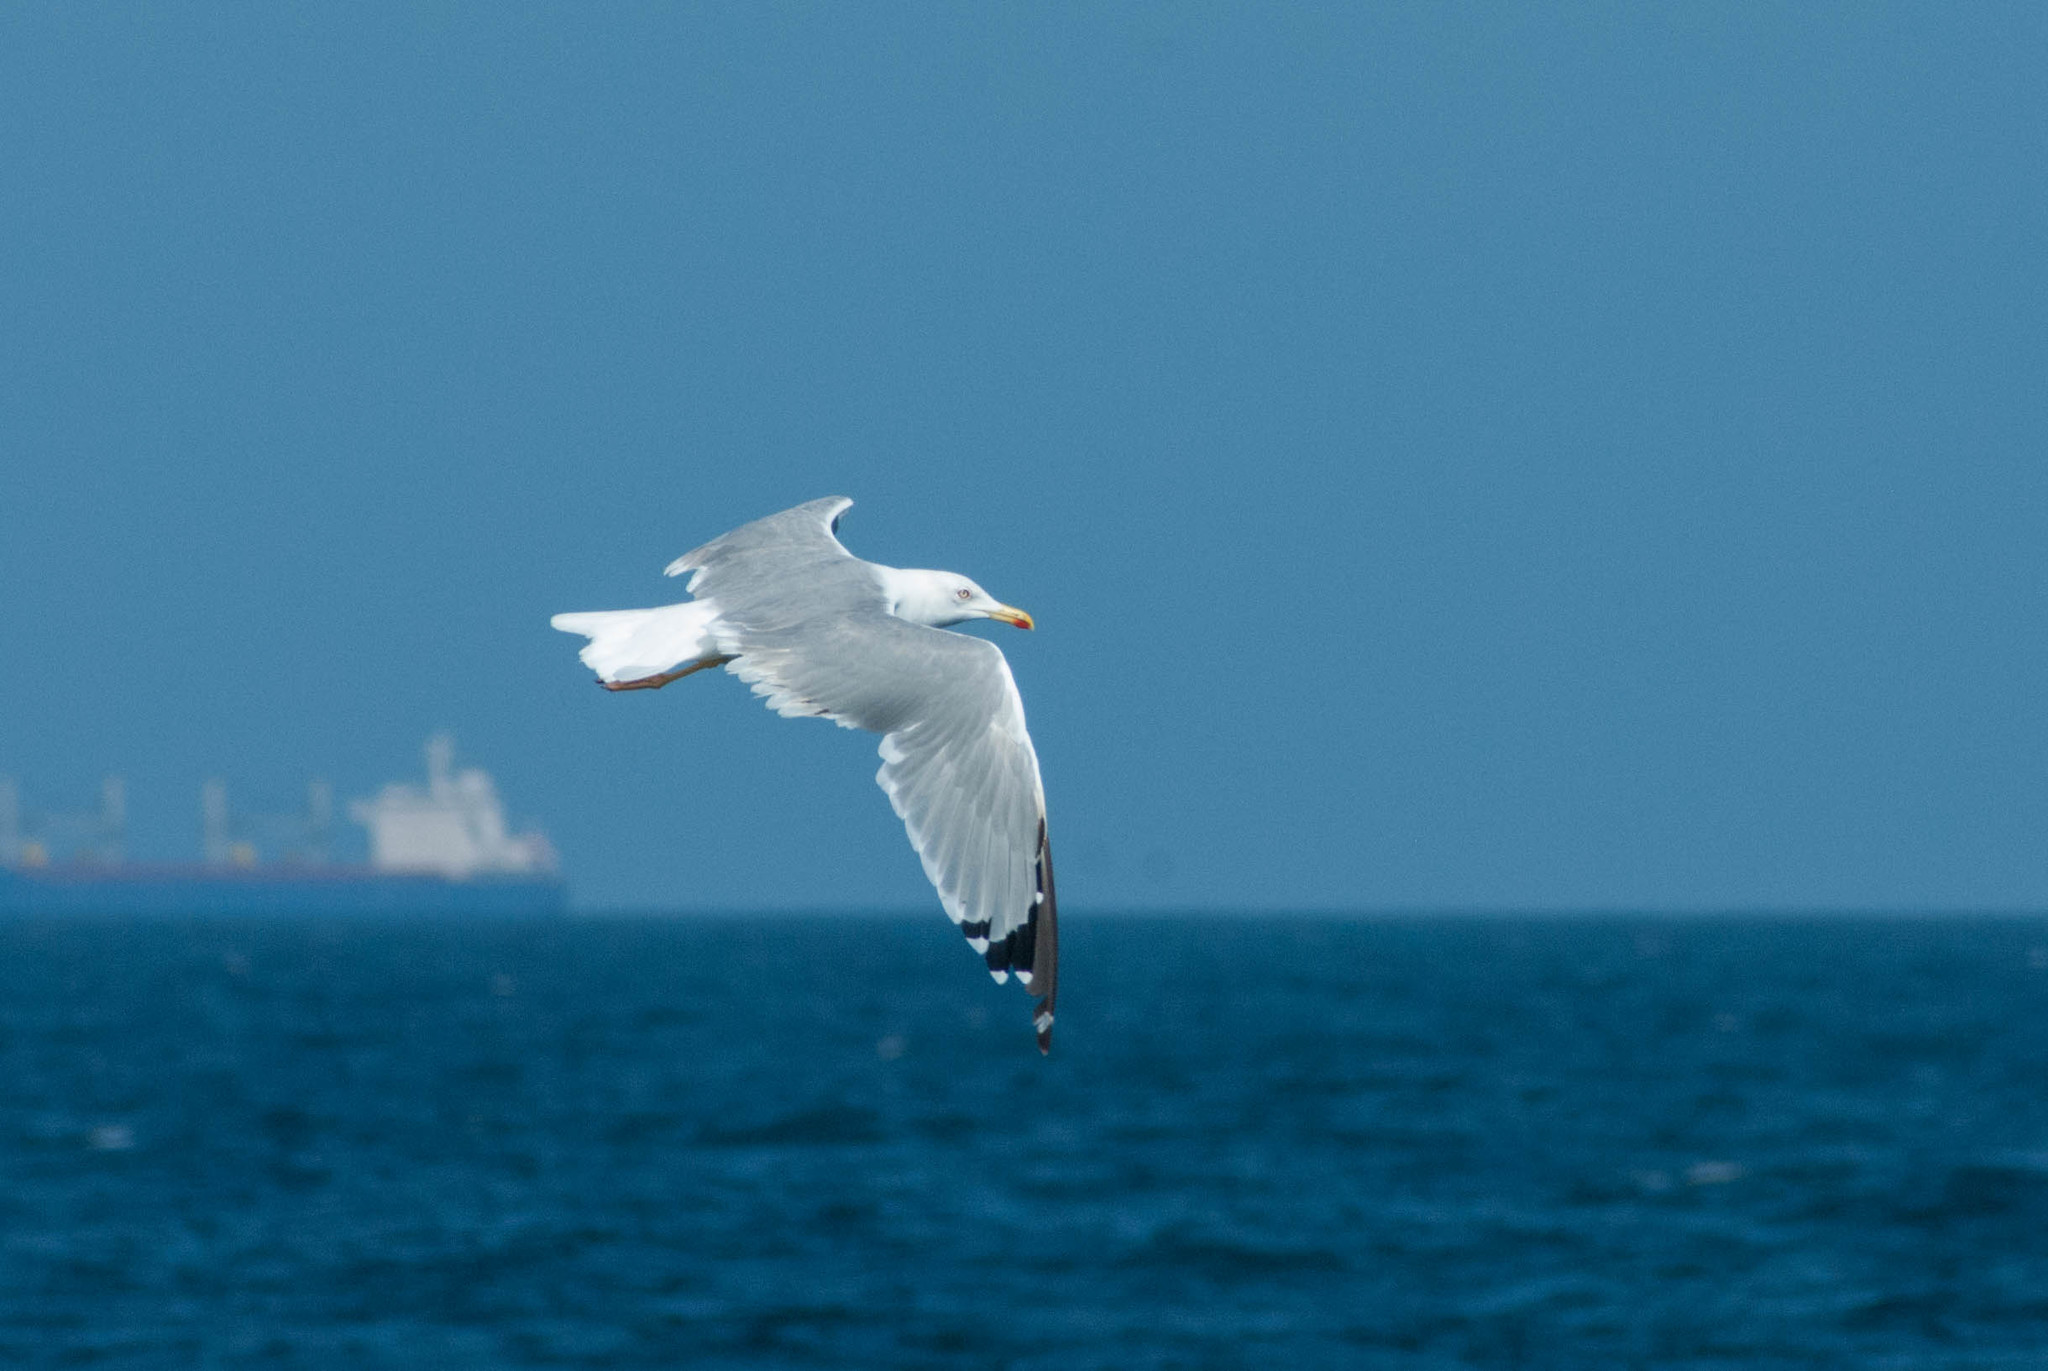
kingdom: Animalia
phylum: Chordata
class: Aves
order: Charadriiformes
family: Laridae
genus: Larus
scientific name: Larus michahellis
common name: Yellow-legged gull
